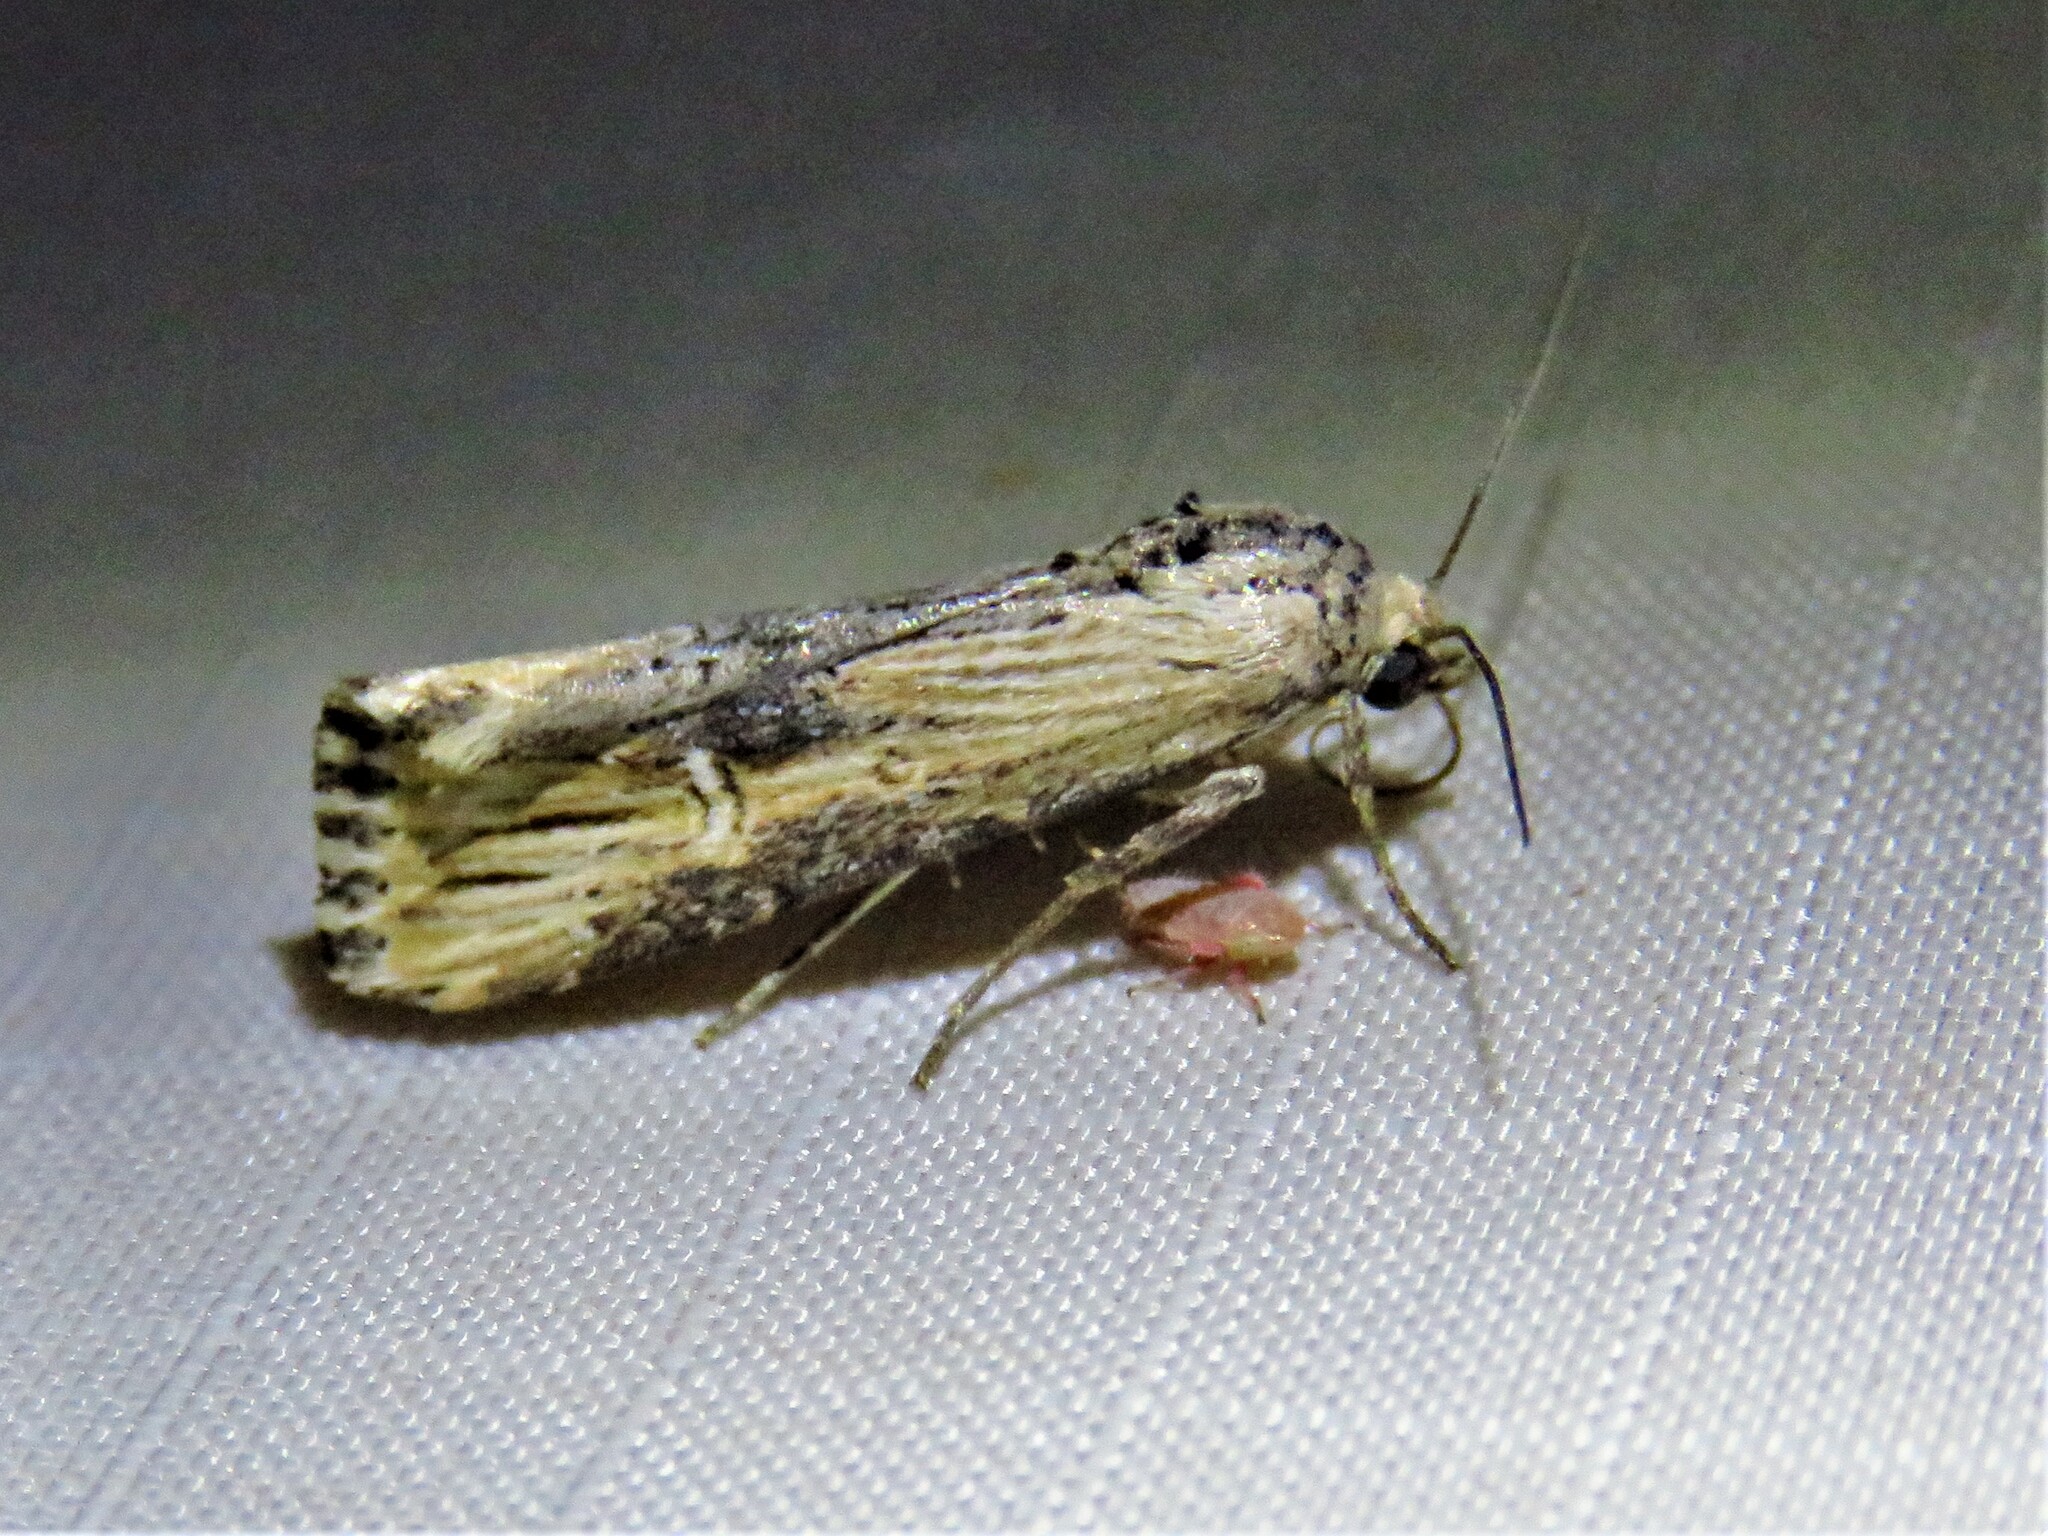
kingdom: Animalia
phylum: Arthropoda
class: Insecta
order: Lepidoptera
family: Noctuidae
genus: Crambodes
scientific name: Crambodes talidiformis
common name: Verbena moth
